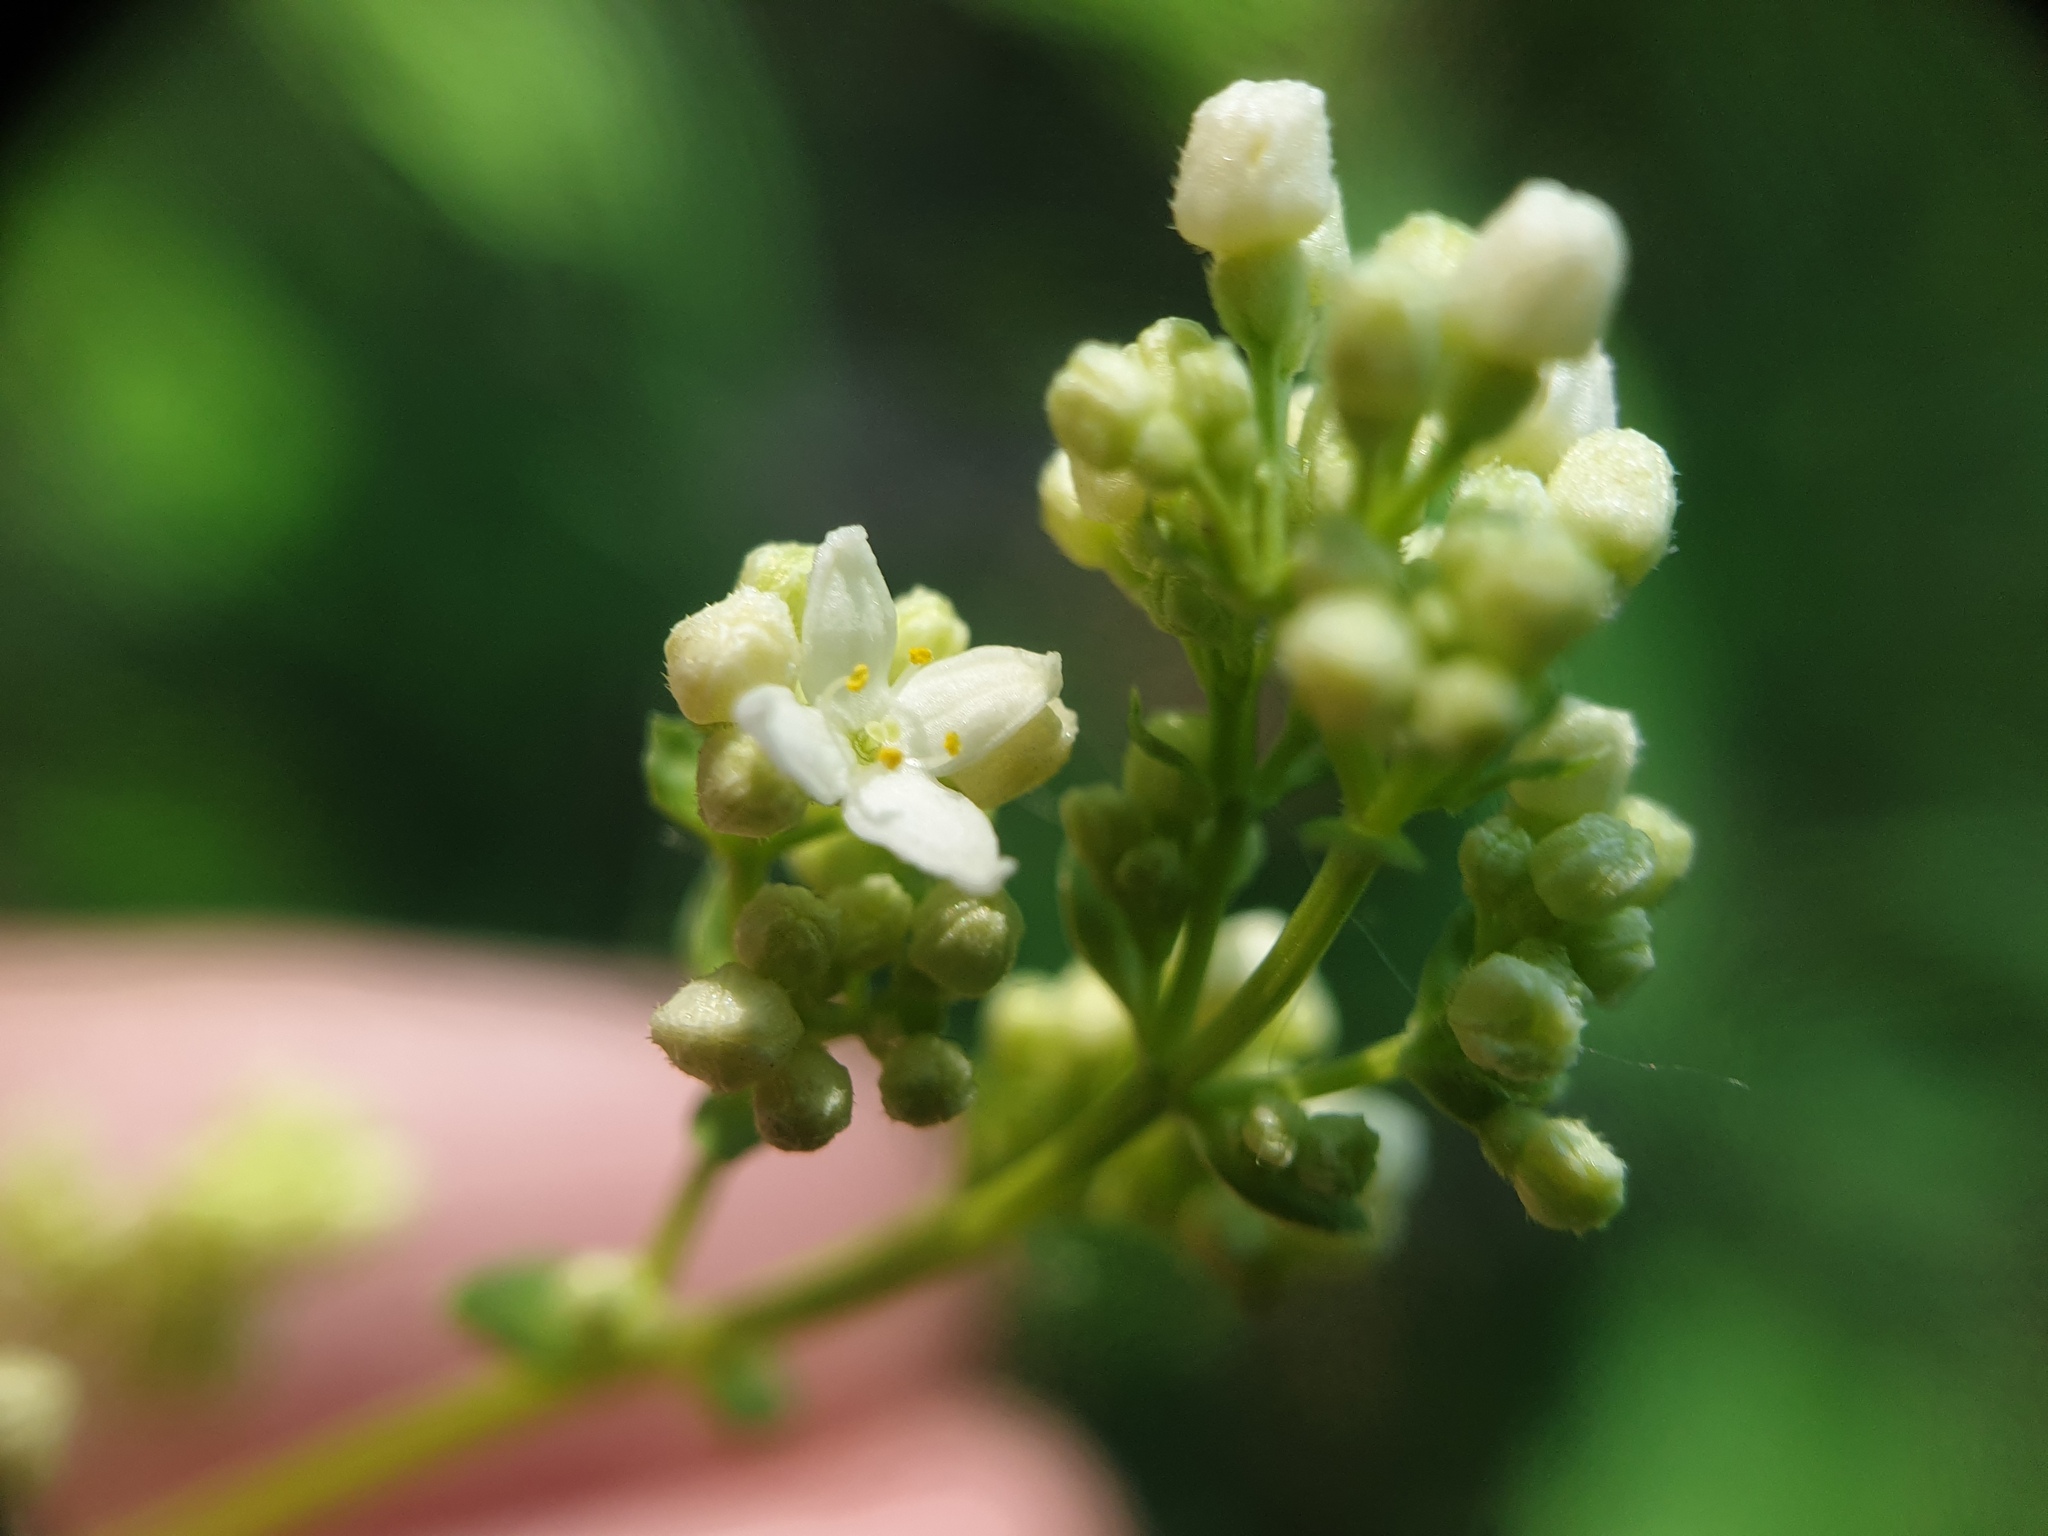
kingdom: Plantae
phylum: Tracheophyta
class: Magnoliopsida
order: Gentianales
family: Rubiaceae
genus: Galium
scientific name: Galium boreale
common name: Northern bedstraw
